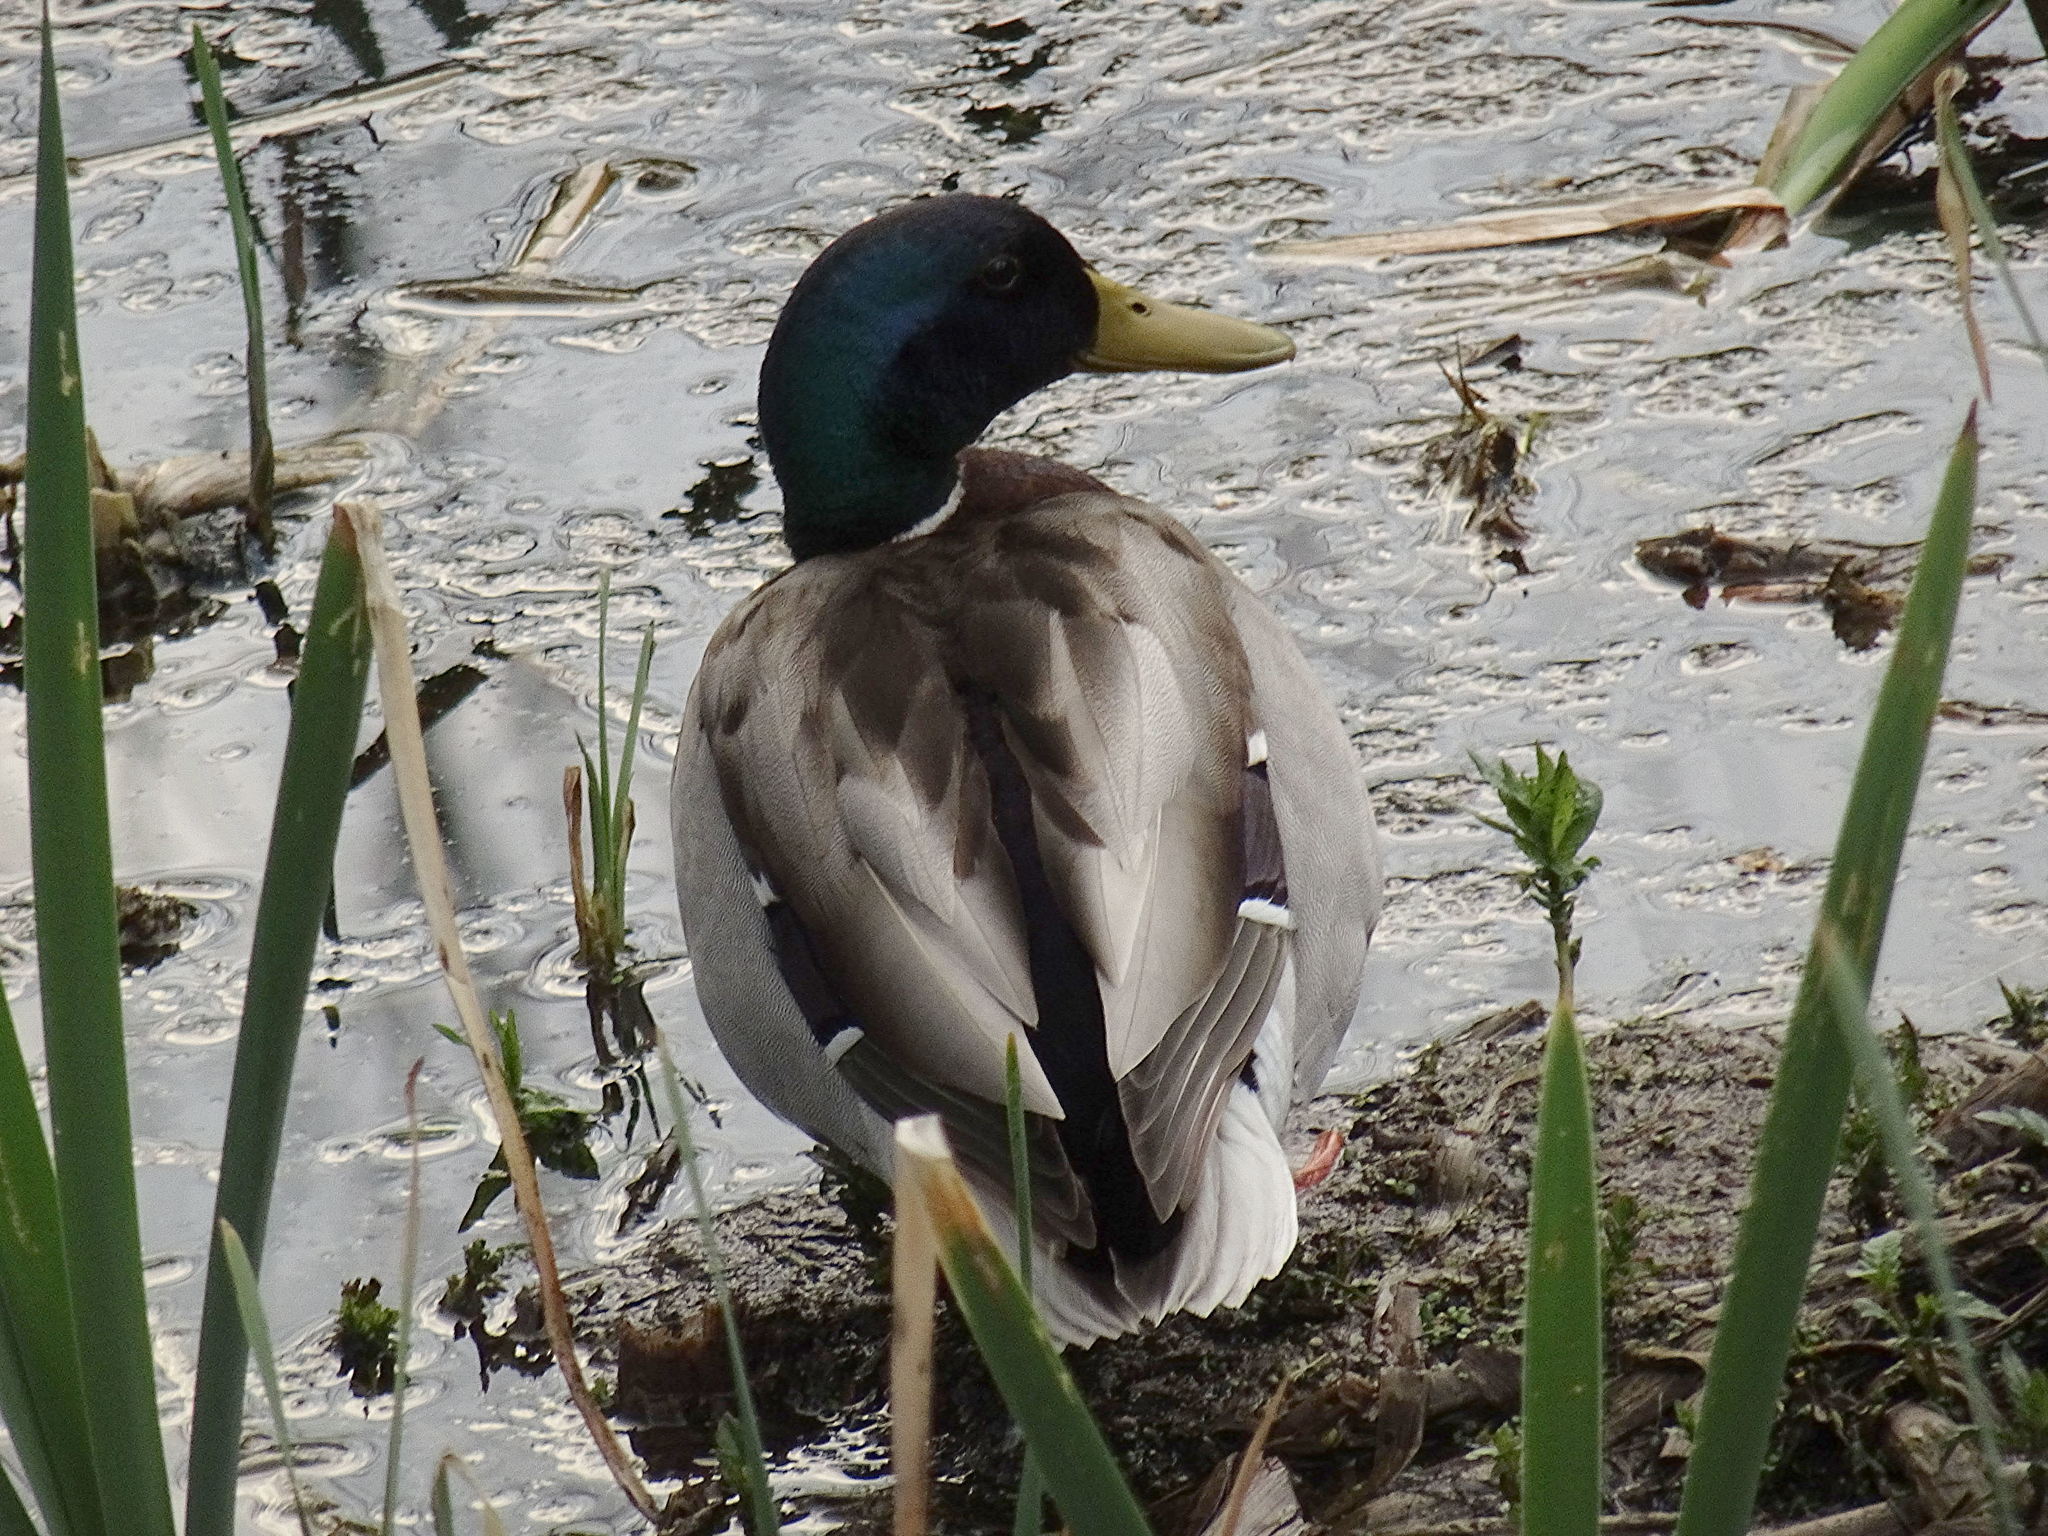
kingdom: Animalia
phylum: Chordata
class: Aves
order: Anseriformes
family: Anatidae
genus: Anas
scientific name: Anas platyrhynchos
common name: Mallard
